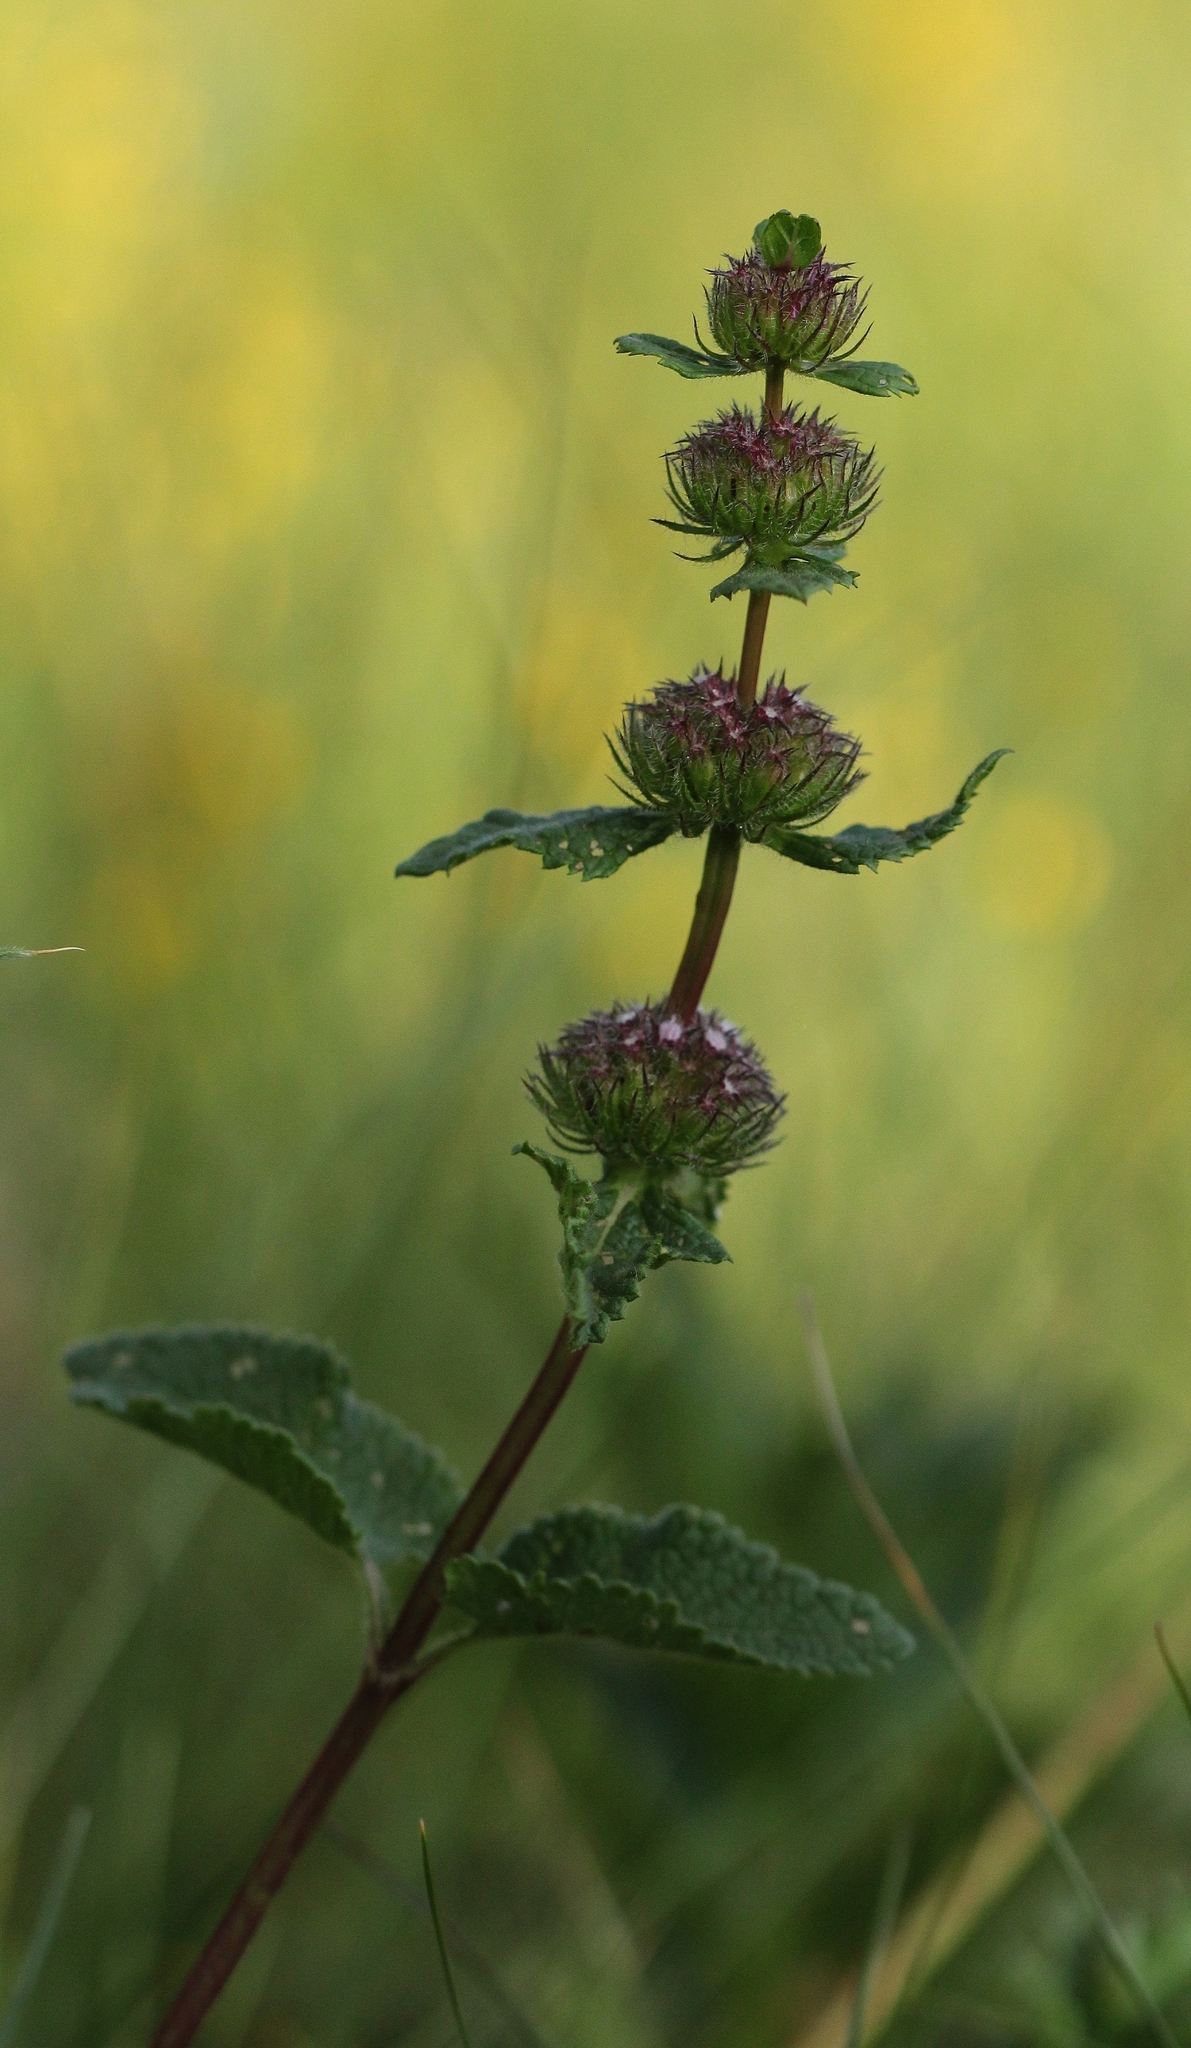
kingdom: Plantae
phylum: Tracheophyta
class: Magnoliopsida
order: Lamiales
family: Lamiaceae
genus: Phlomoides
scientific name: Phlomoides tuberosa
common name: Tuberous jerusalem sage
